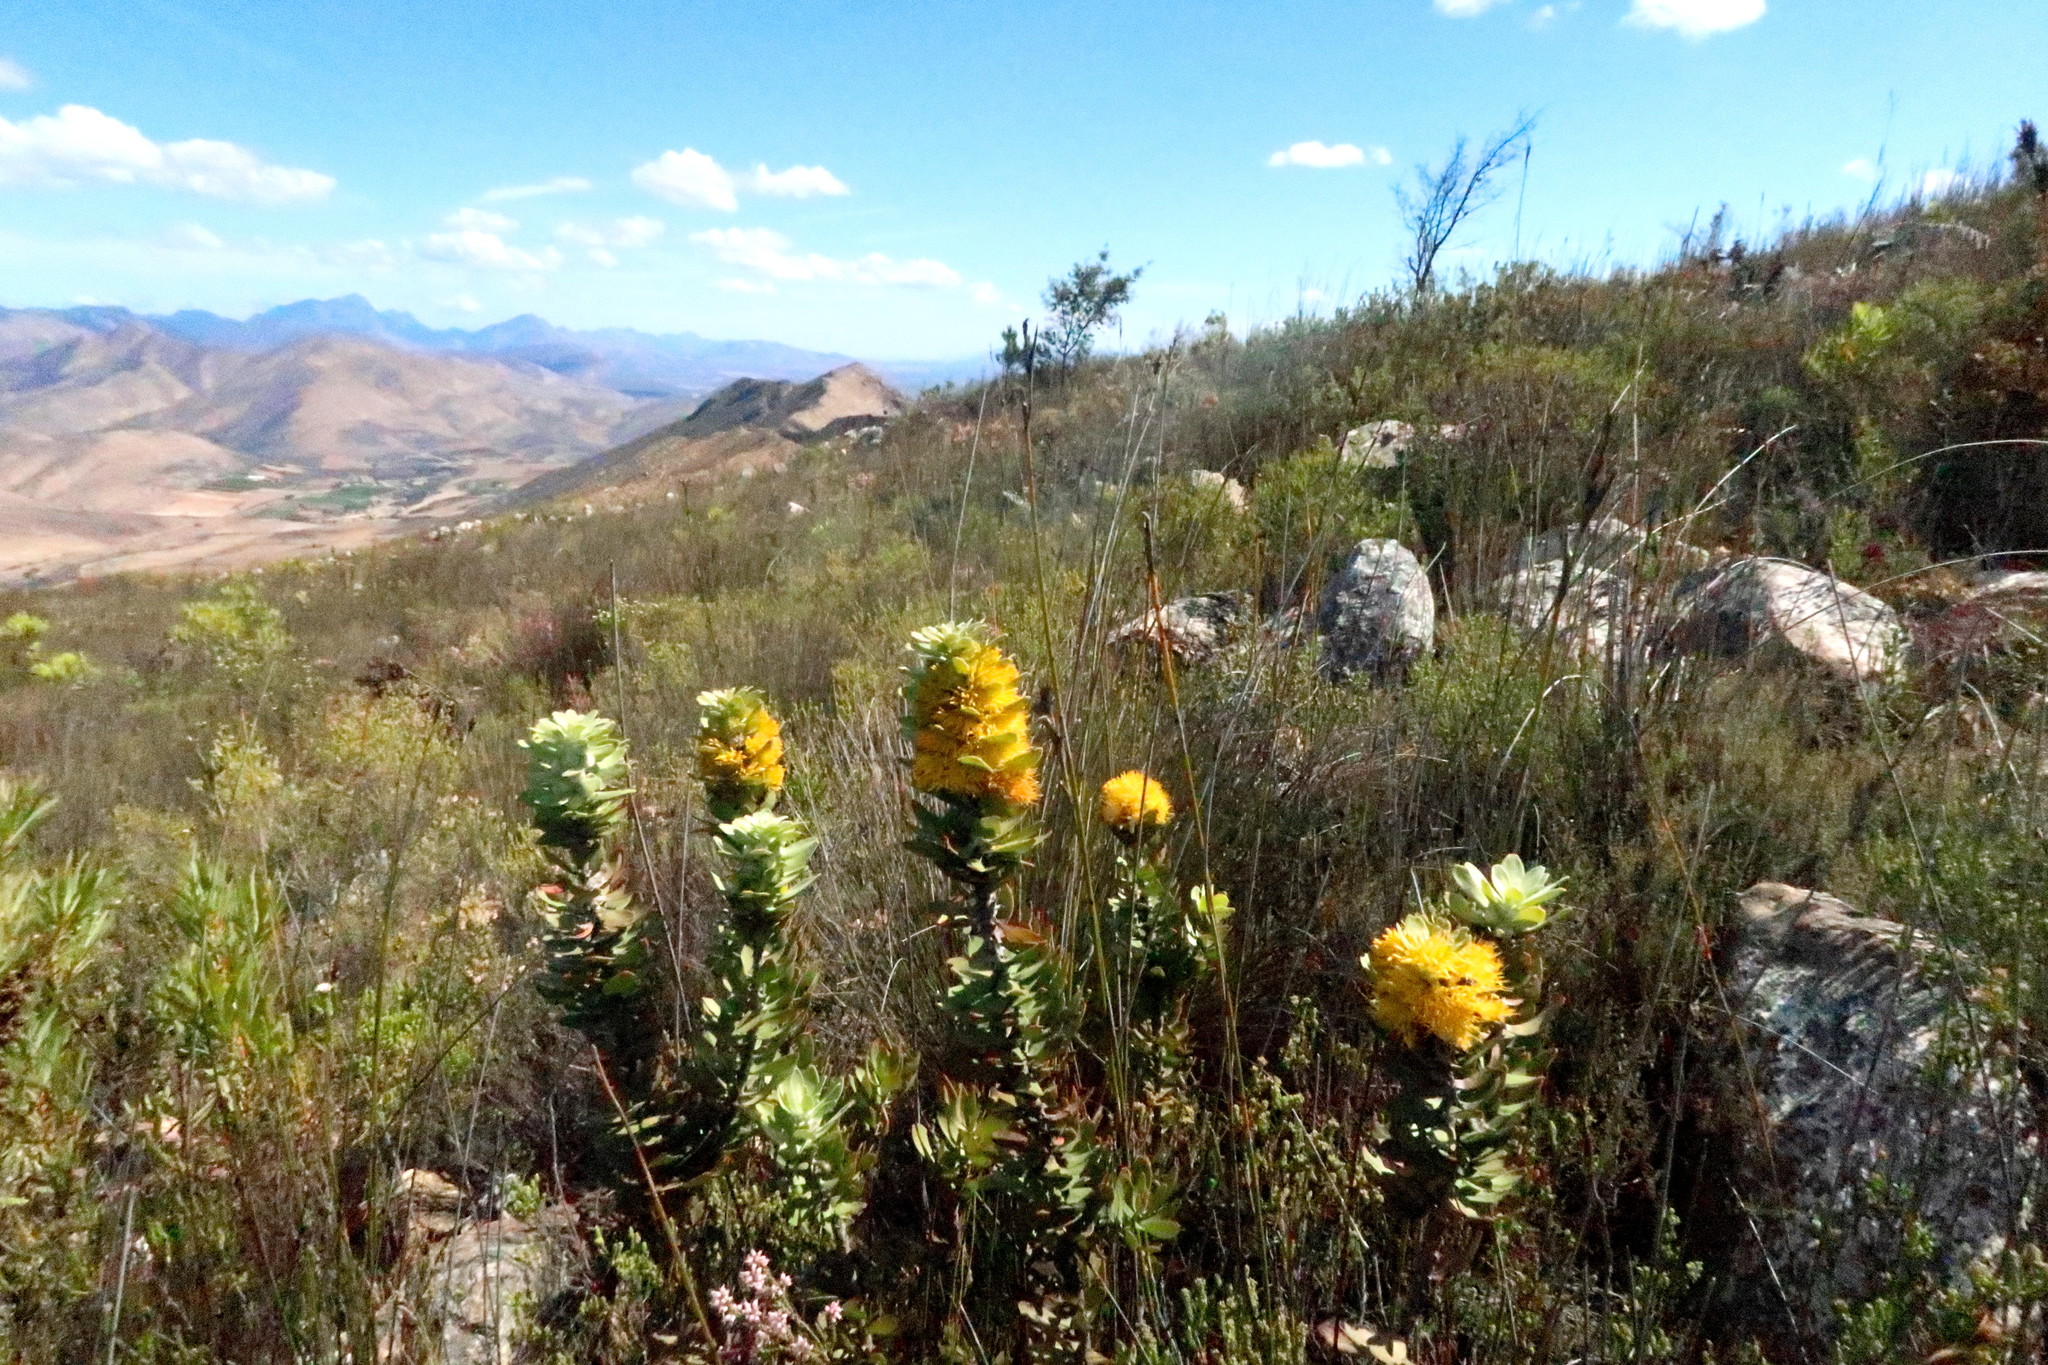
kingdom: Plantae
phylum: Tracheophyta
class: Magnoliopsida
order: Proteales
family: Proteaceae
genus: Mimetes
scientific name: Mimetes chrysanthus
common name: Golden pagoda
